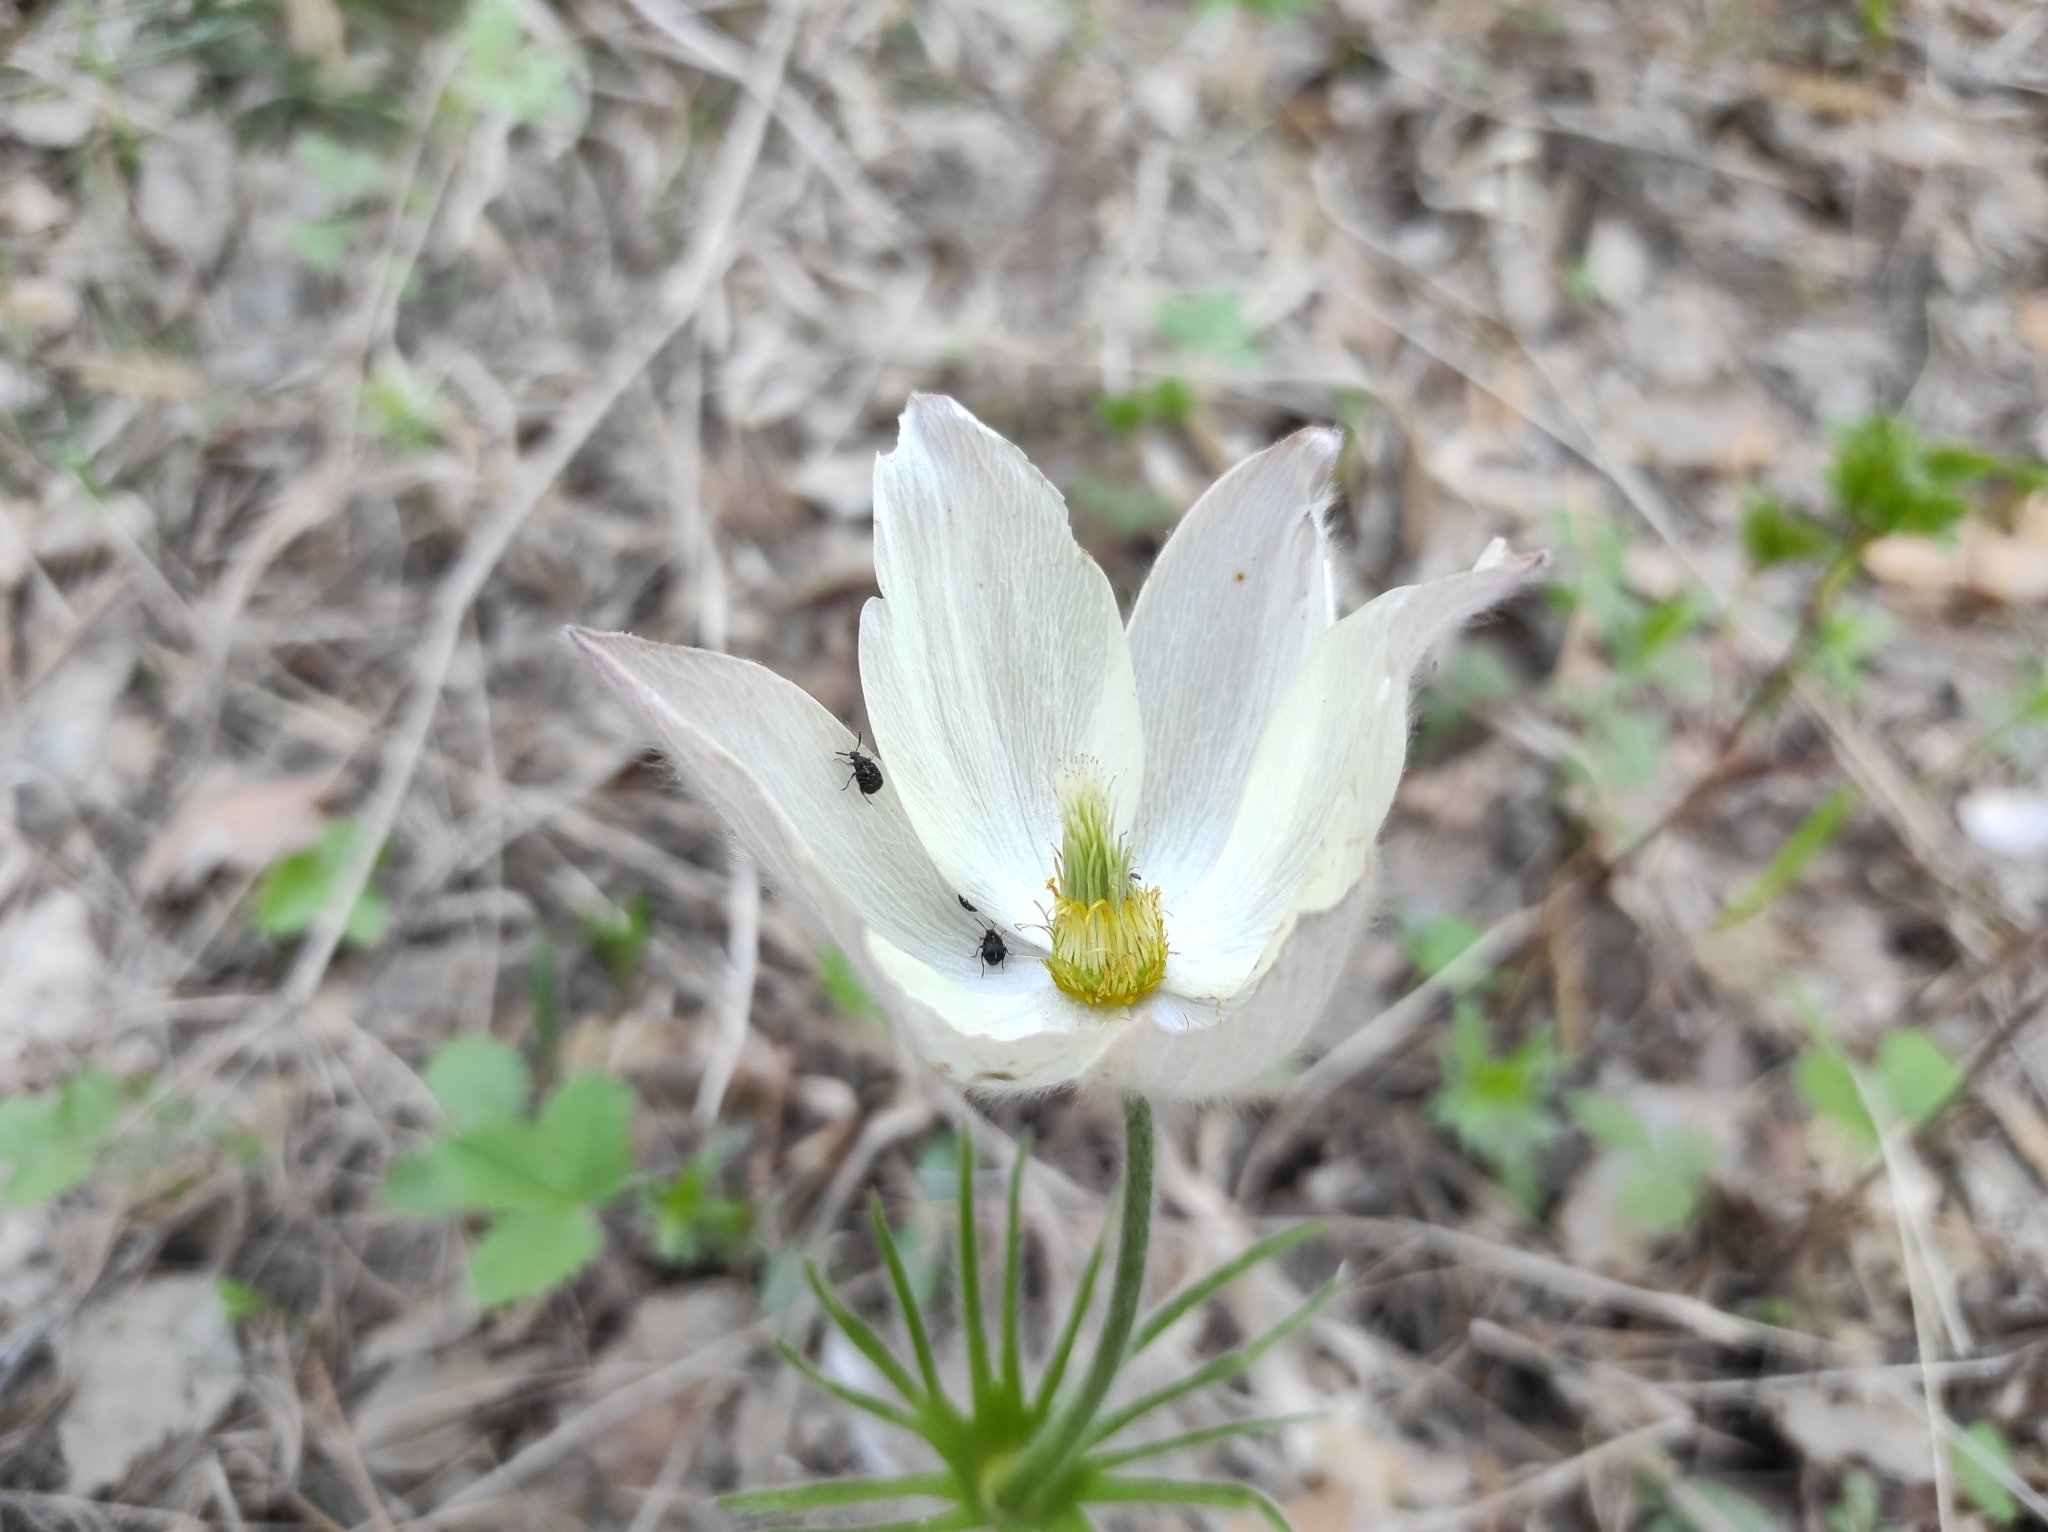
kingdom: Plantae
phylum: Tracheophyta
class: Magnoliopsida
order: Ranunculales
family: Ranunculaceae
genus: Pulsatilla
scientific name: Pulsatilla patens
